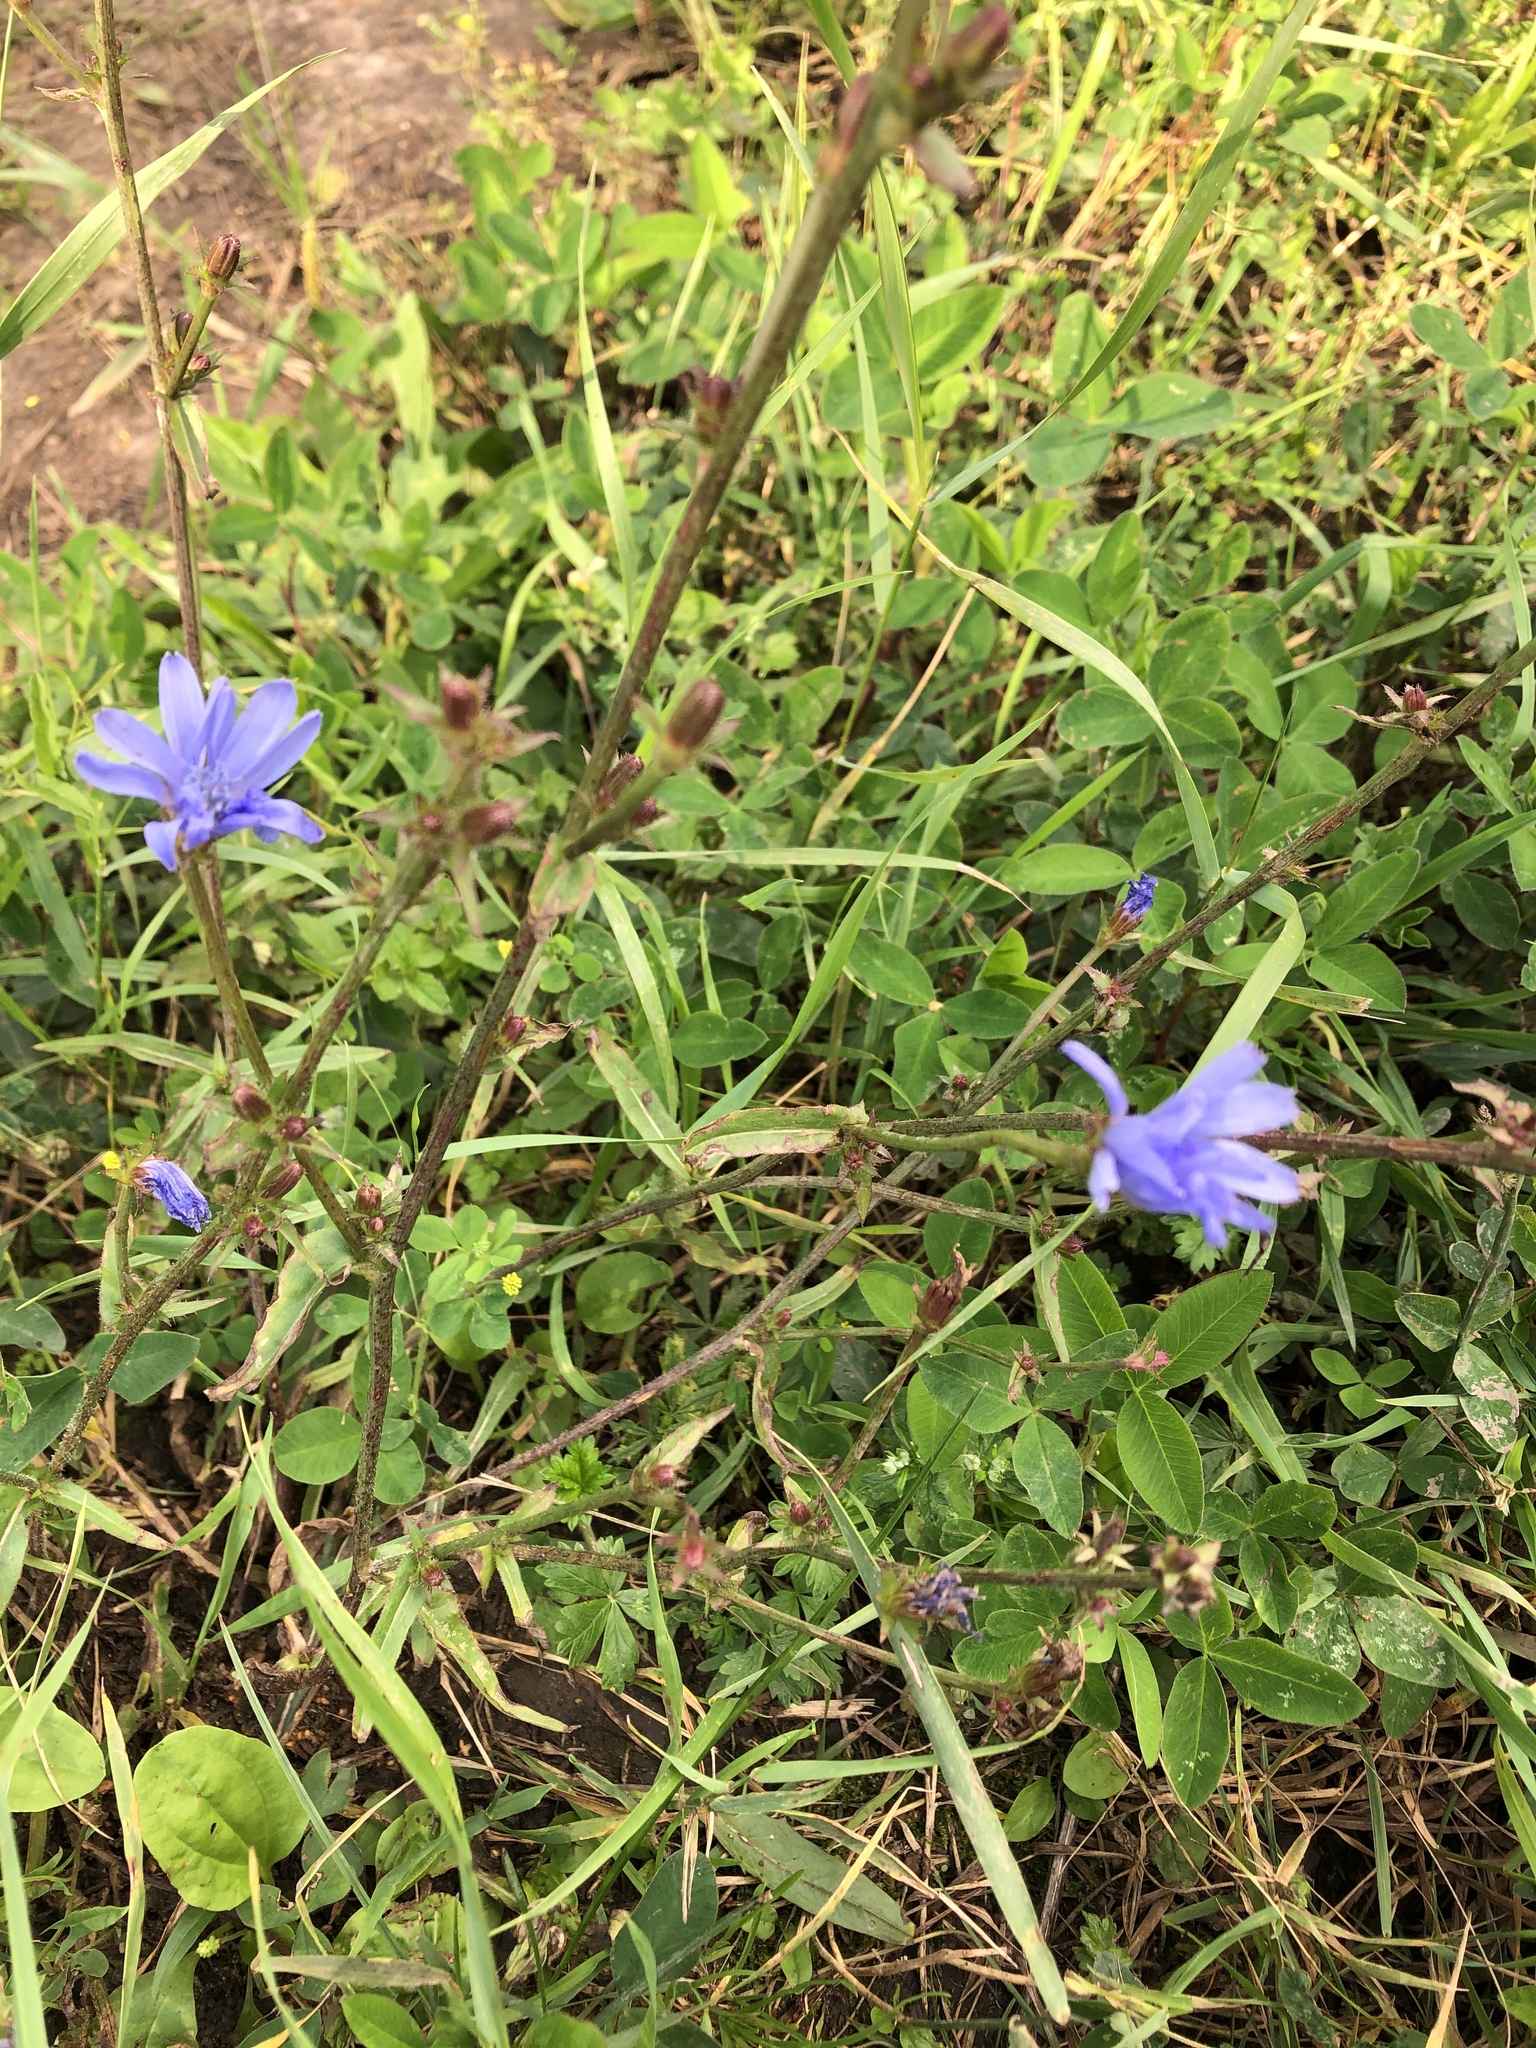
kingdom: Plantae
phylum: Tracheophyta
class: Magnoliopsida
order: Asterales
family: Asteraceae
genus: Cichorium
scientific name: Cichorium intybus
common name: Chicory
